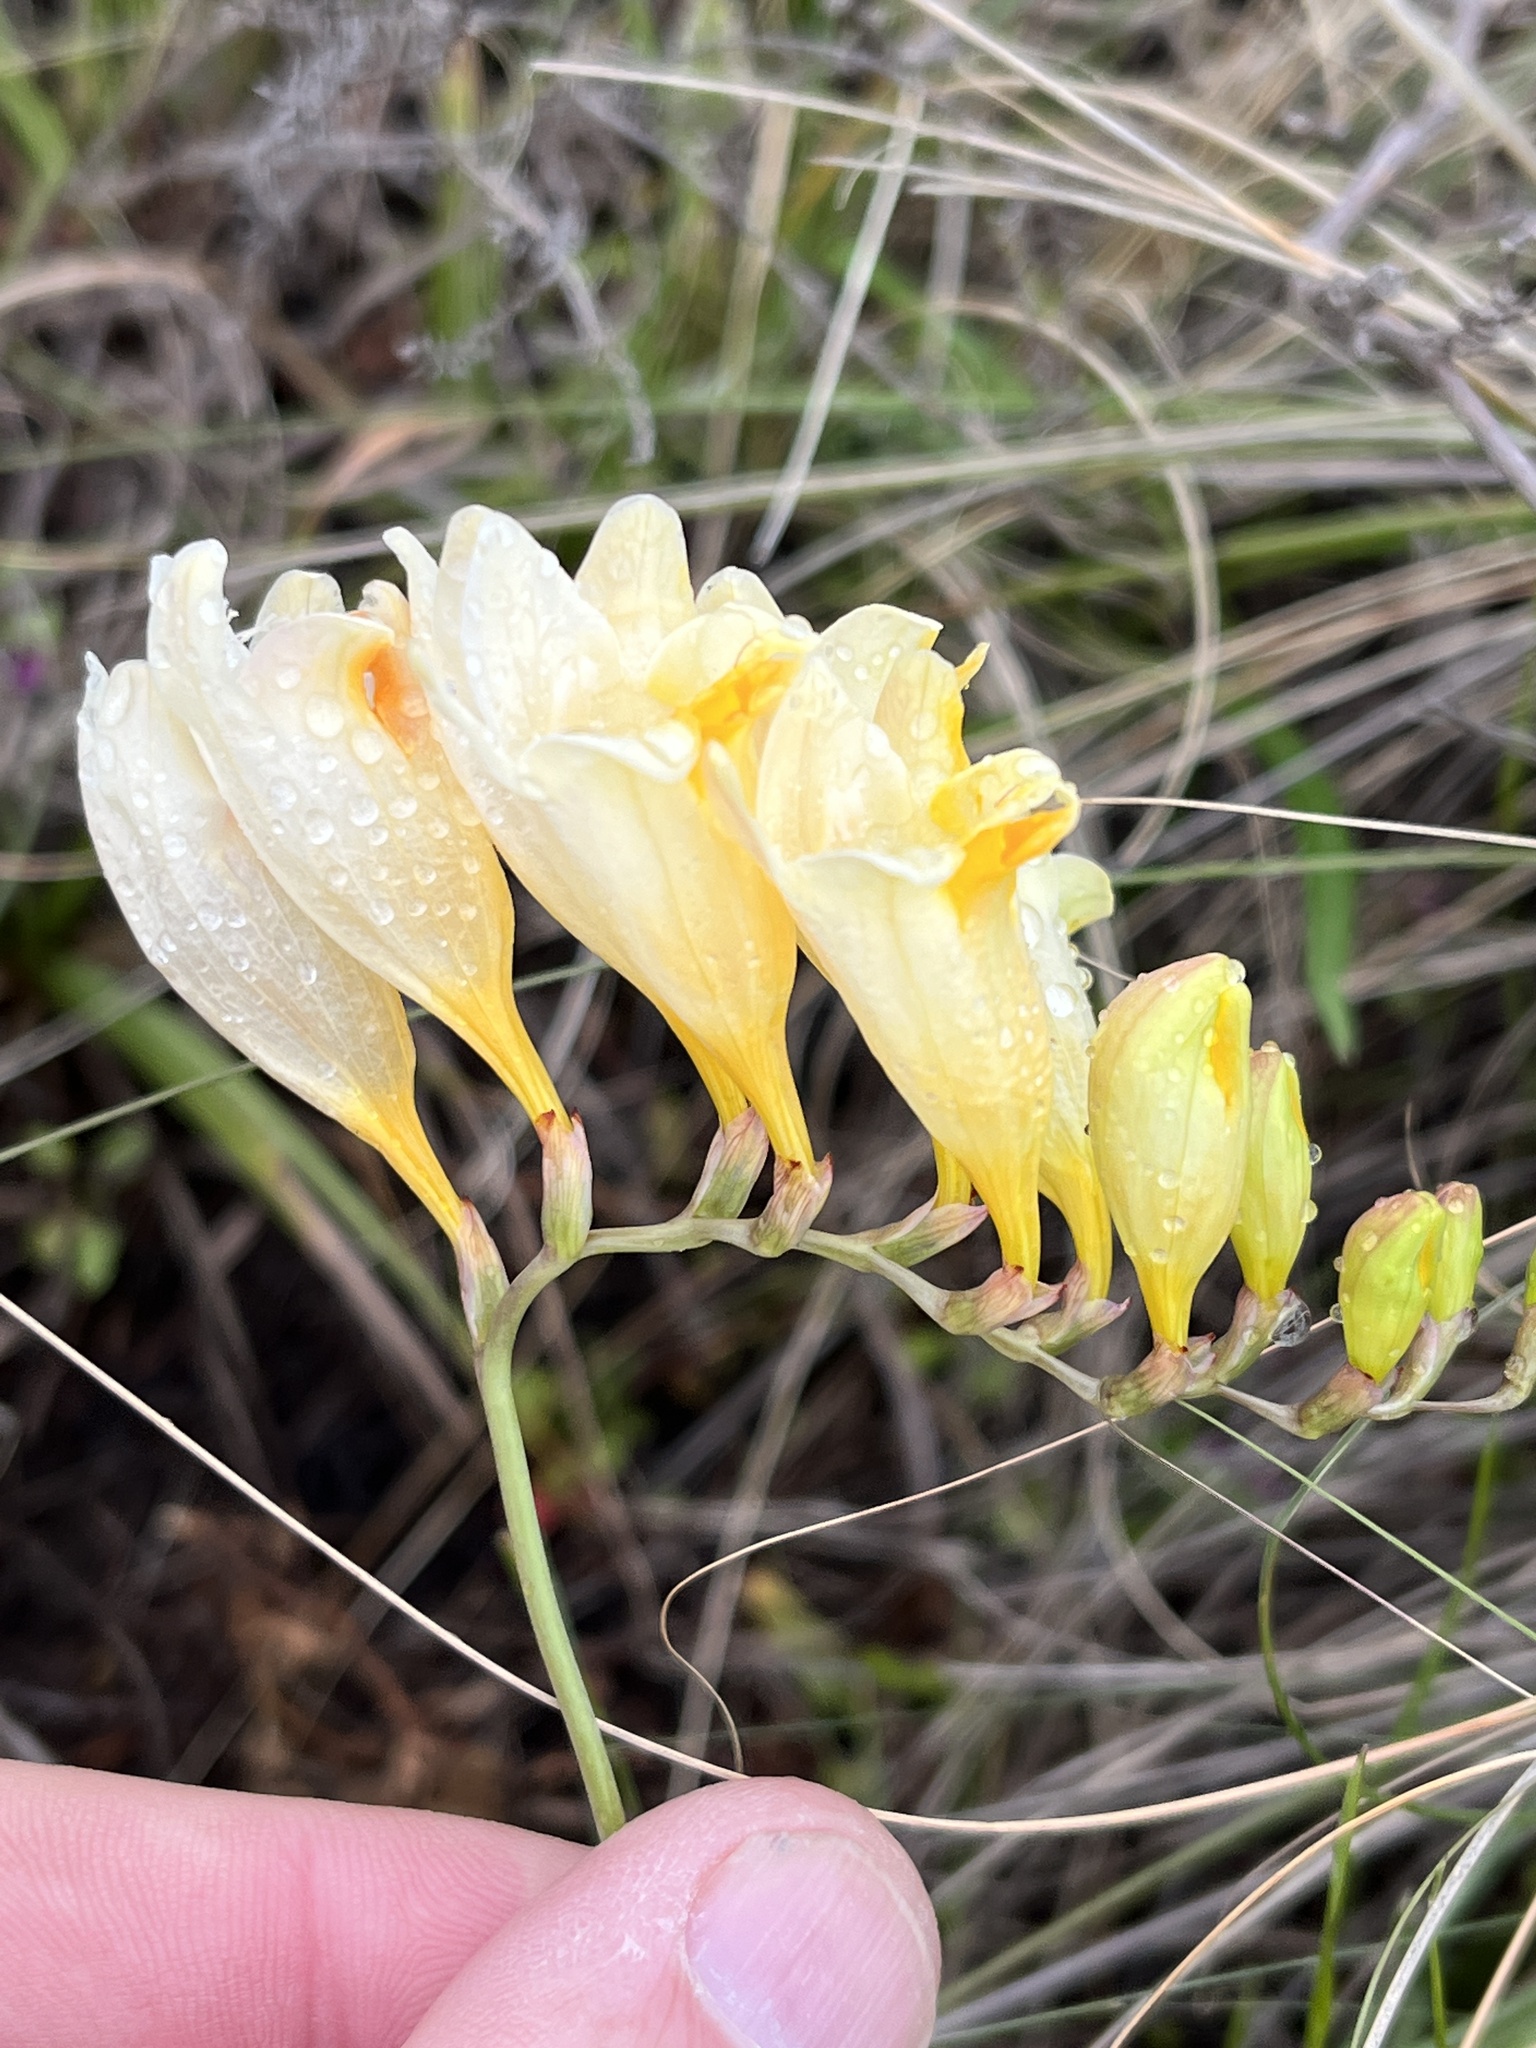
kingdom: Plantae
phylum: Tracheophyta
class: Liliopsida
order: Asparagales
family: Iridaceae
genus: Freesia
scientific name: Freesia corymbosa
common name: Common freesia
